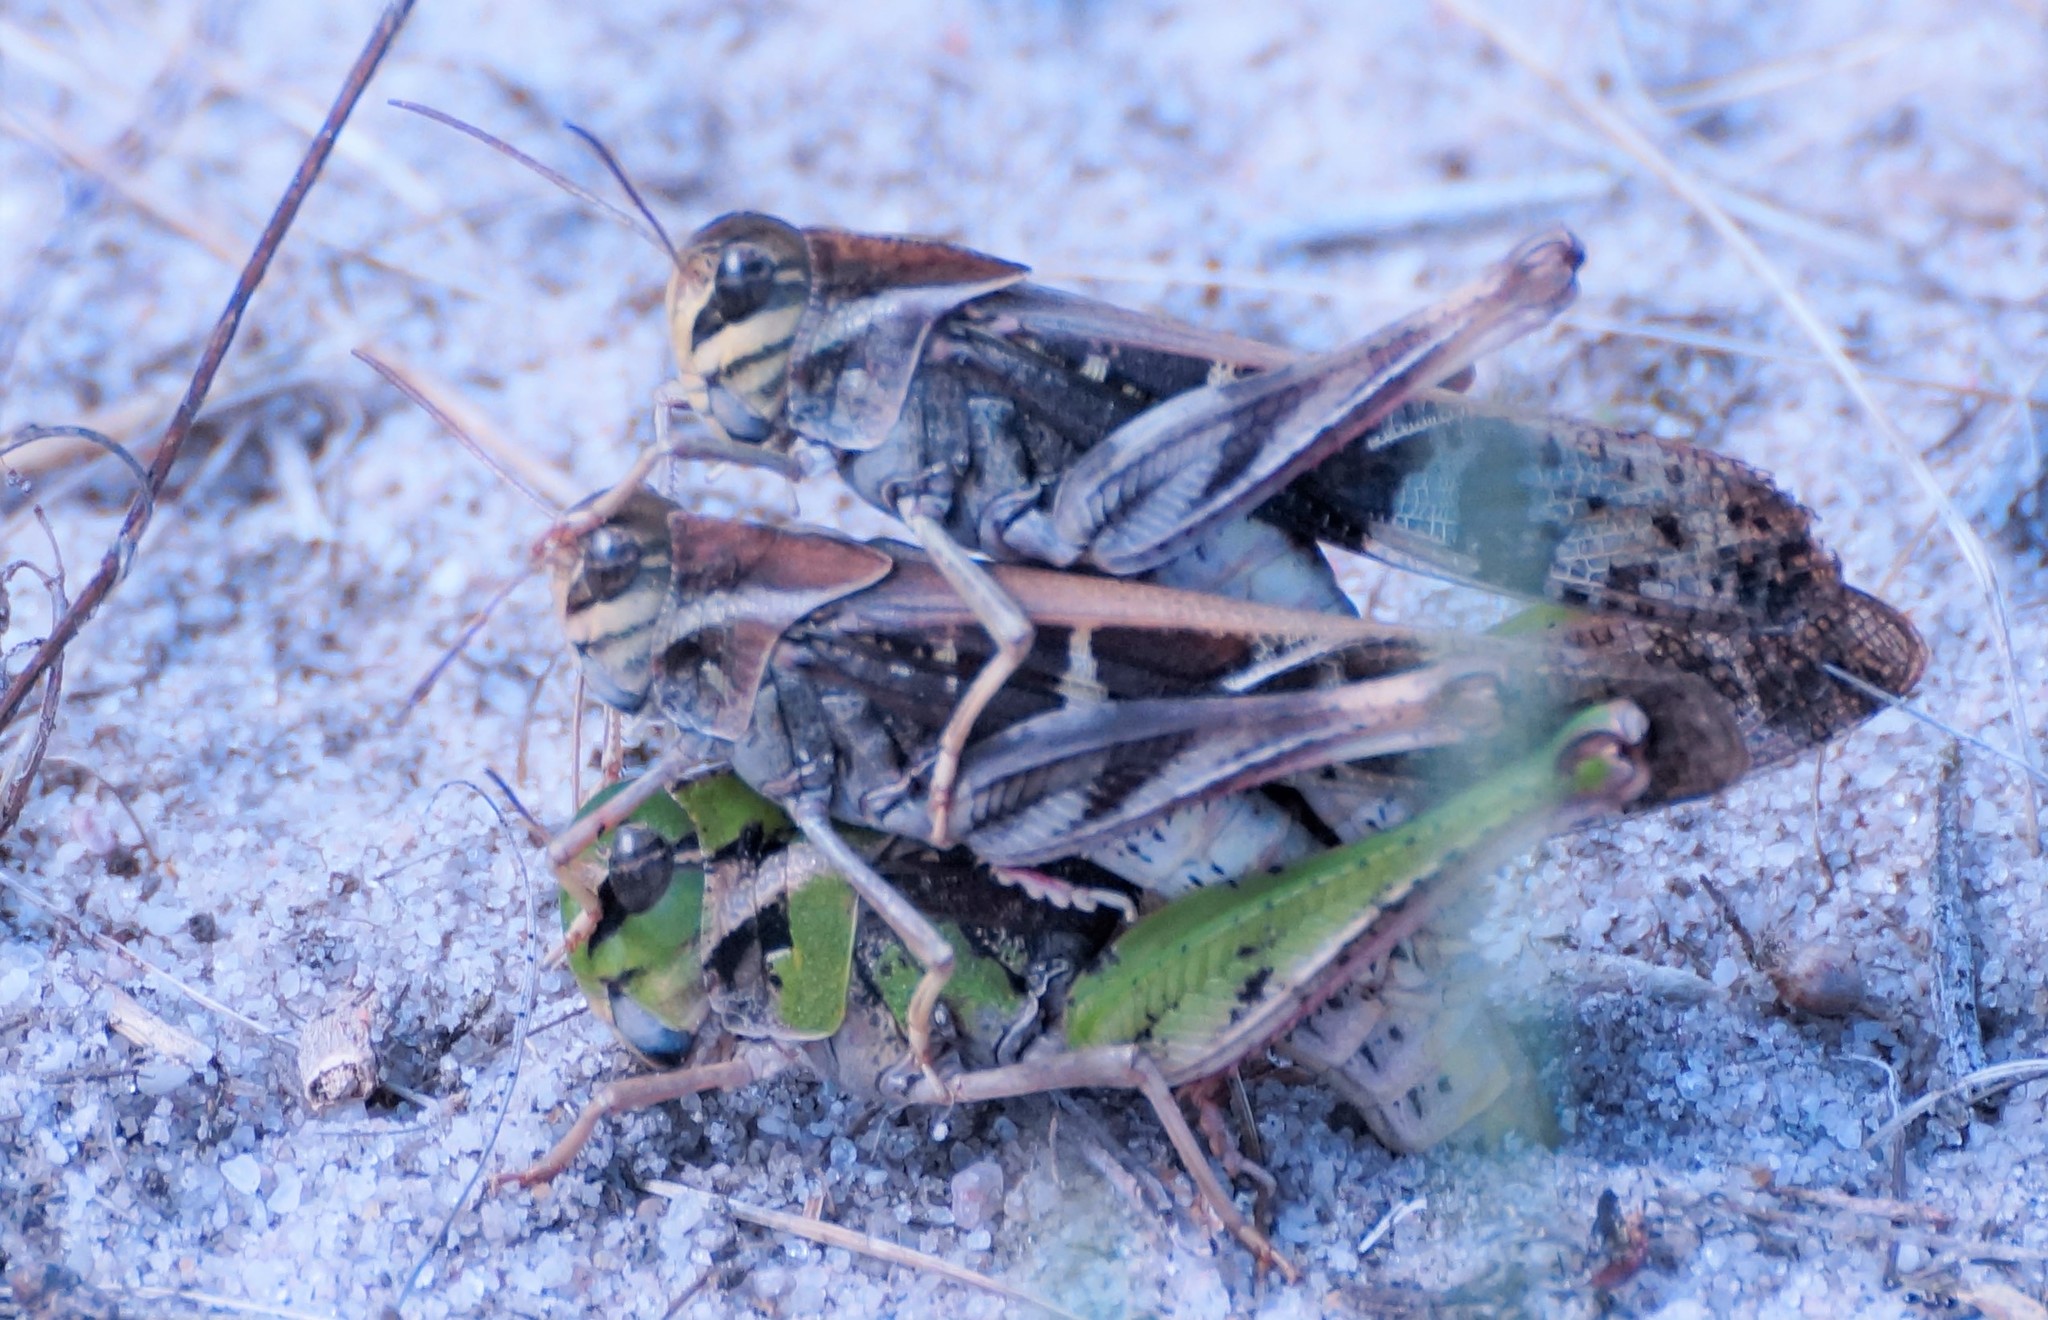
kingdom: Animalia
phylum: Arthropoda
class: Insecta
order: Orthoptera
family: Acrididae
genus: Gastrimargus
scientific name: Gastrimargus musicus
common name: Yellow-winged locust
